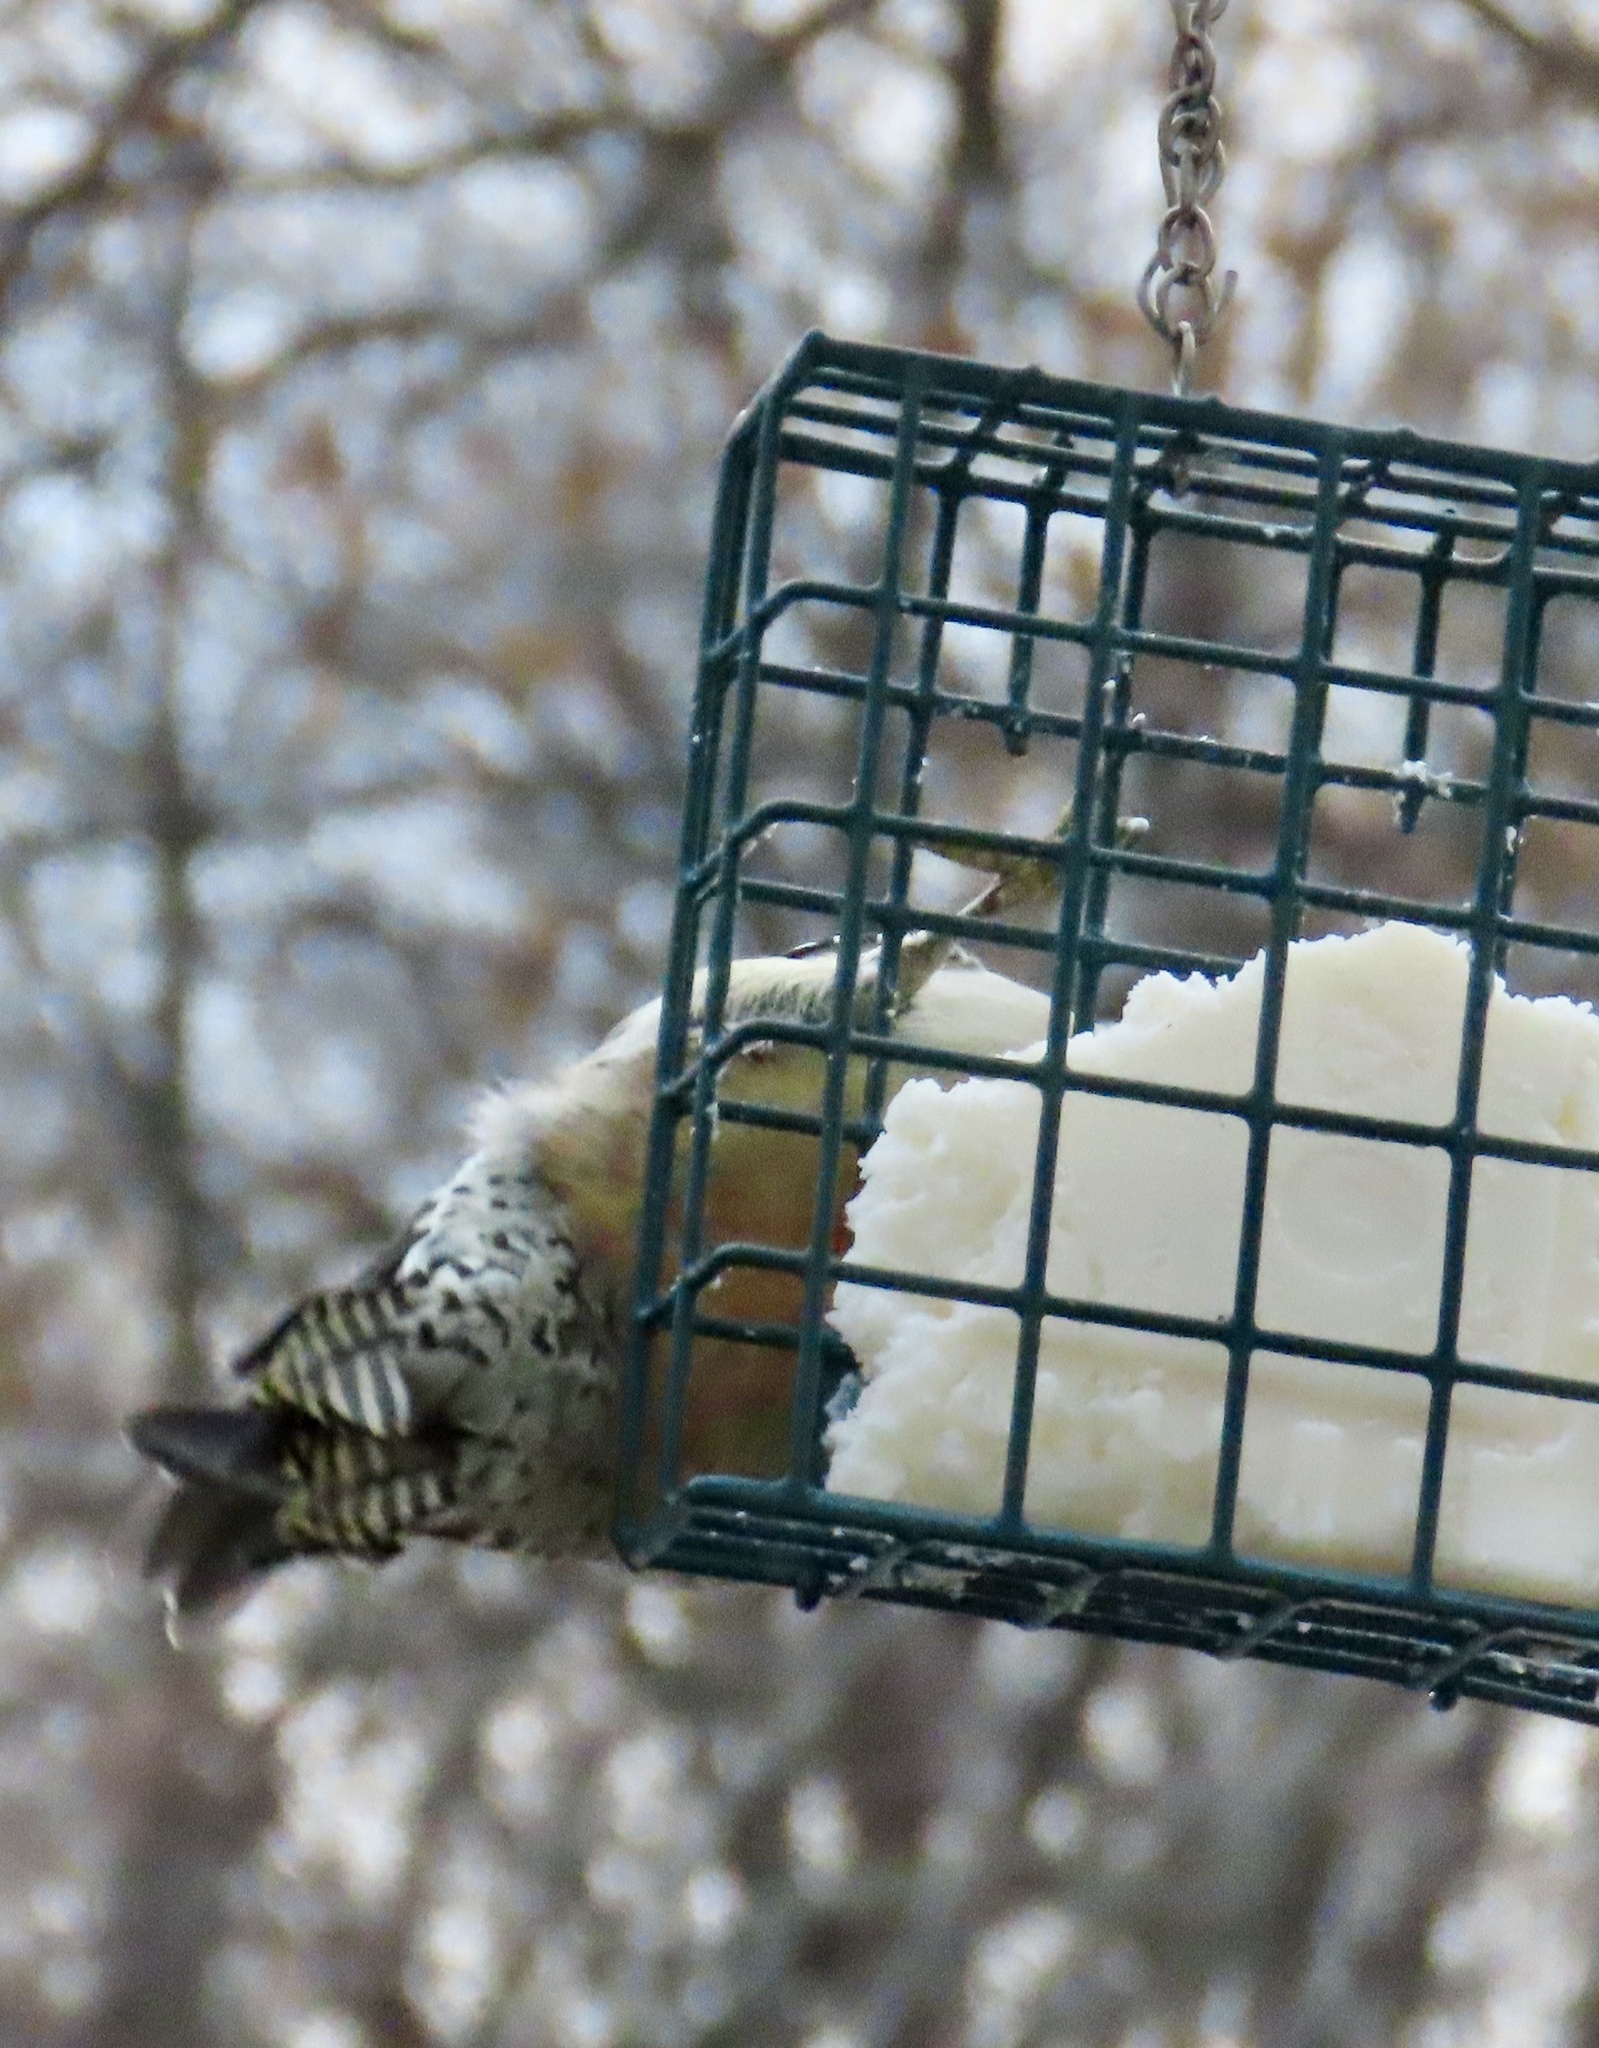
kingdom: Animalia
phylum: Chordata
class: Aves
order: Piciformes
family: Picidae
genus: Melanerpes
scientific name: Melanerpes carolinus
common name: Red-bellied woodpecker
